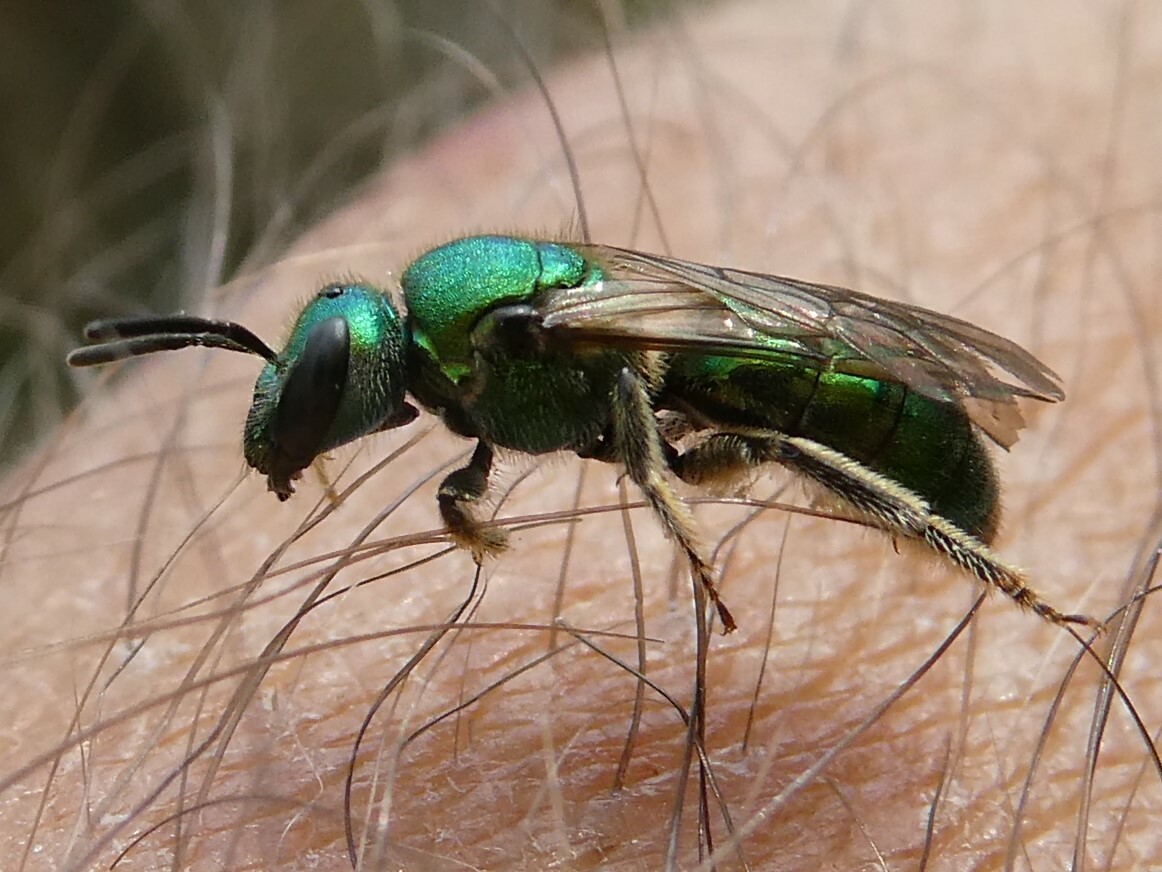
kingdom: Animalia
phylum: Arthropoda
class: Insecta
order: Hymenoptera
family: Halictidae
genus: Augochlora
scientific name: Augochlora pura
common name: Pure green sweat bee
